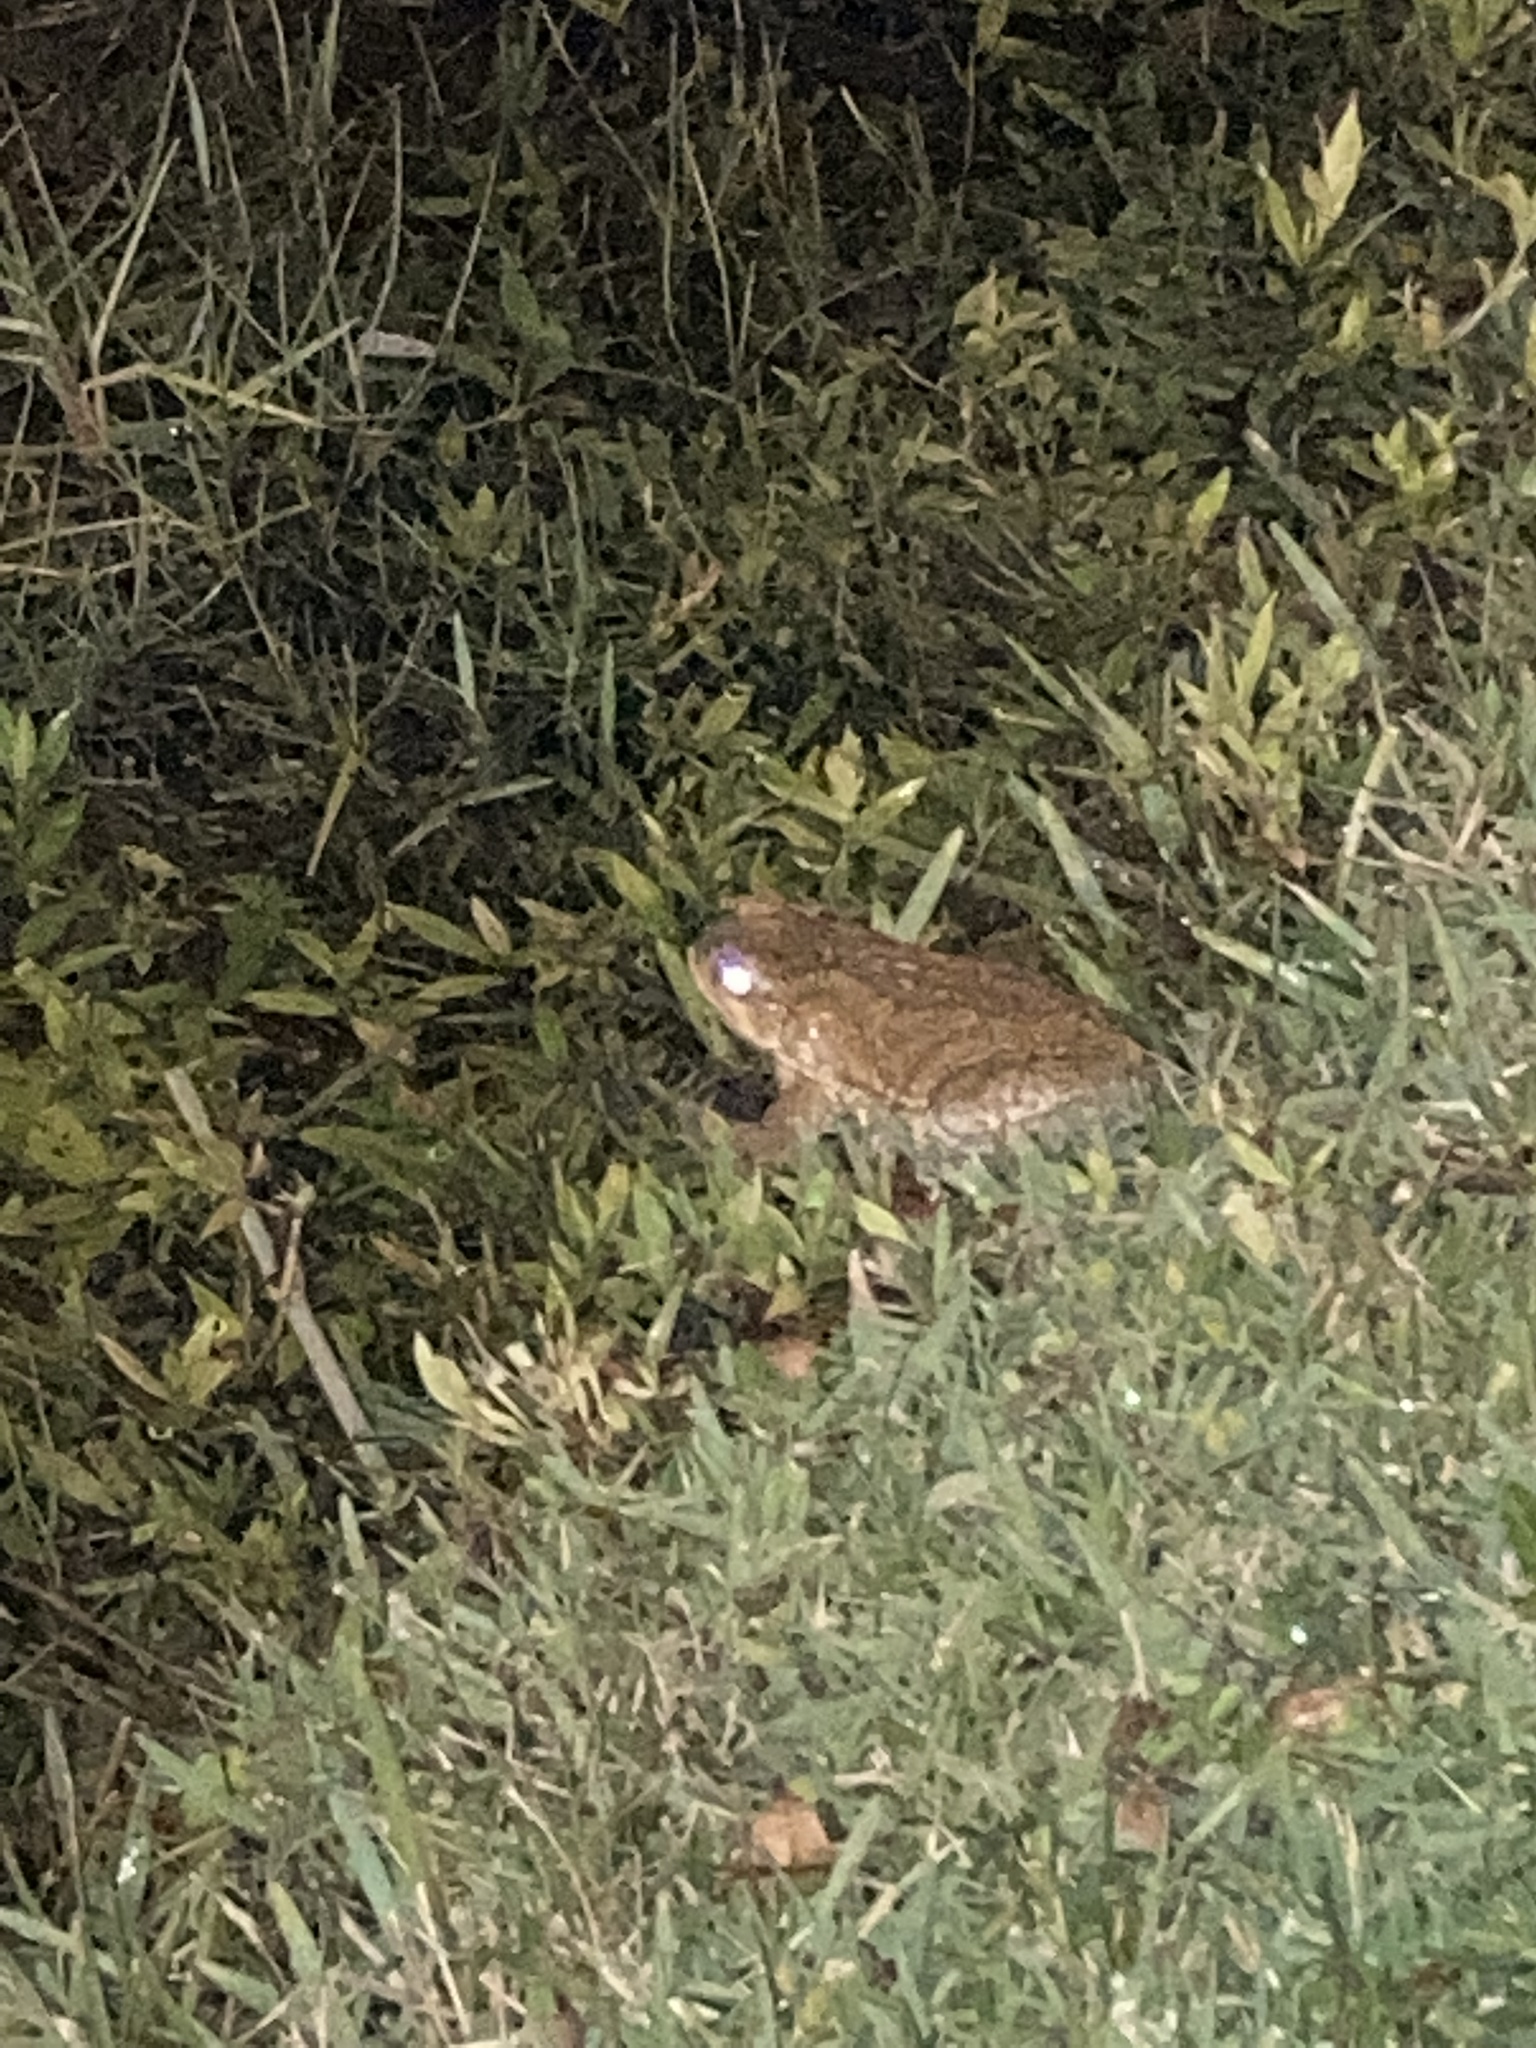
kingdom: Animalia
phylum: Chordata
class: Amphibia
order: Anura
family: Bufonidae
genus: Rhinella
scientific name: Rhinella marina
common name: Cane toad
